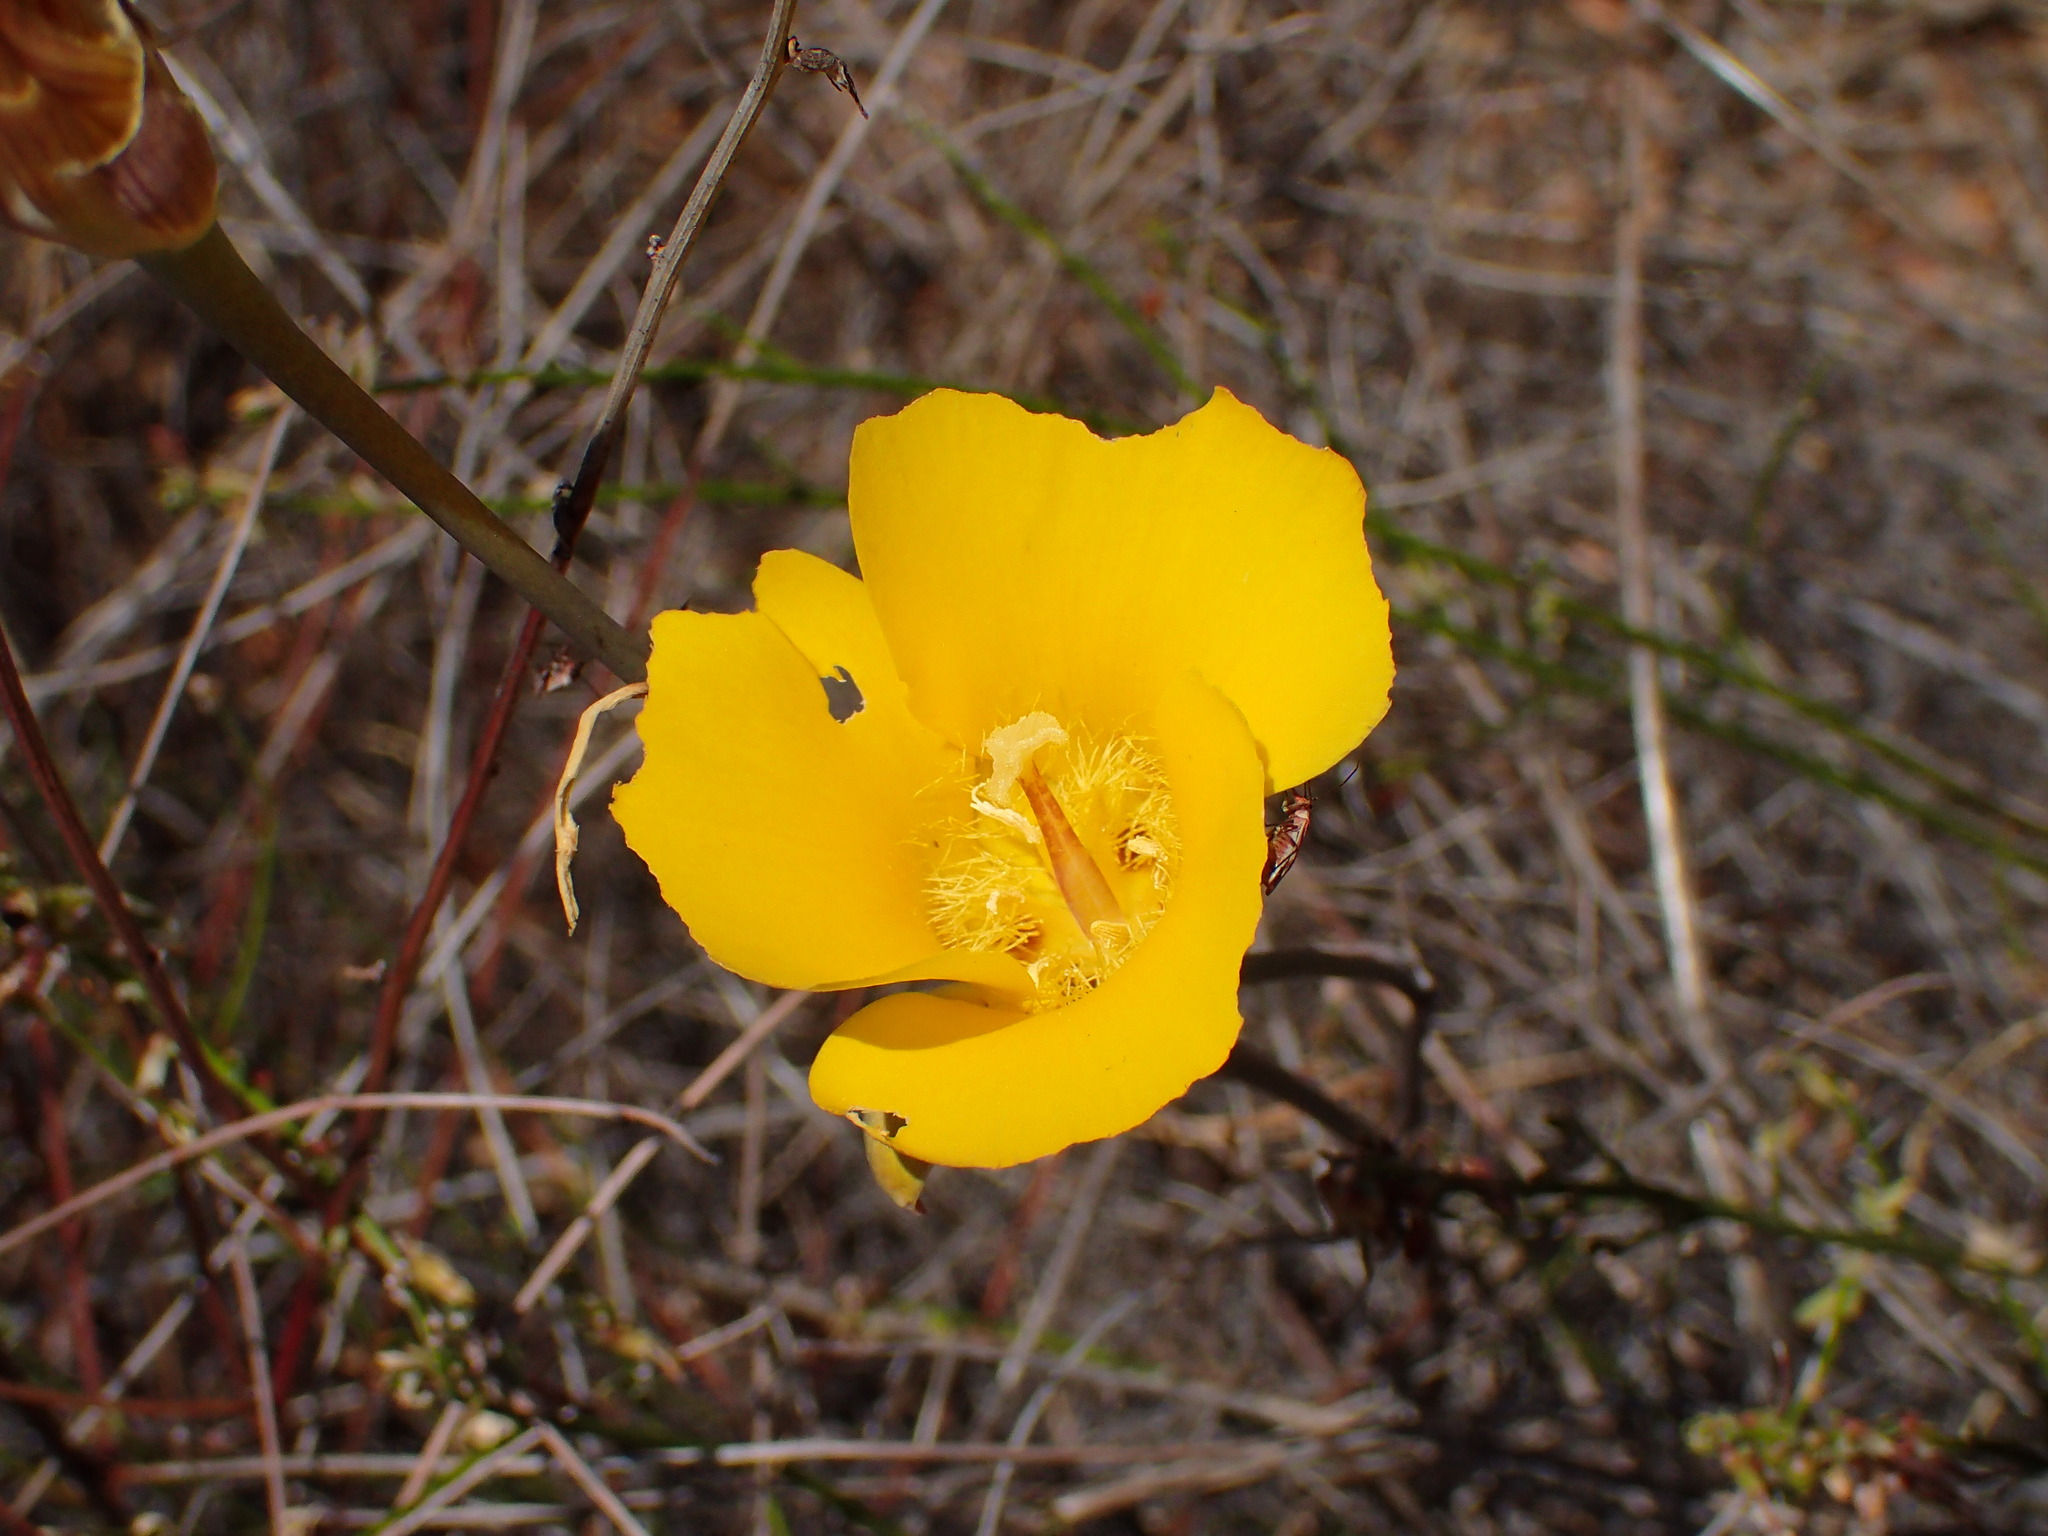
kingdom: Plantae
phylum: Tracheophyta
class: Liliopsida
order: Liliales
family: Liliaceae
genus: Calochortus
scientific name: Calochortus clavatus
